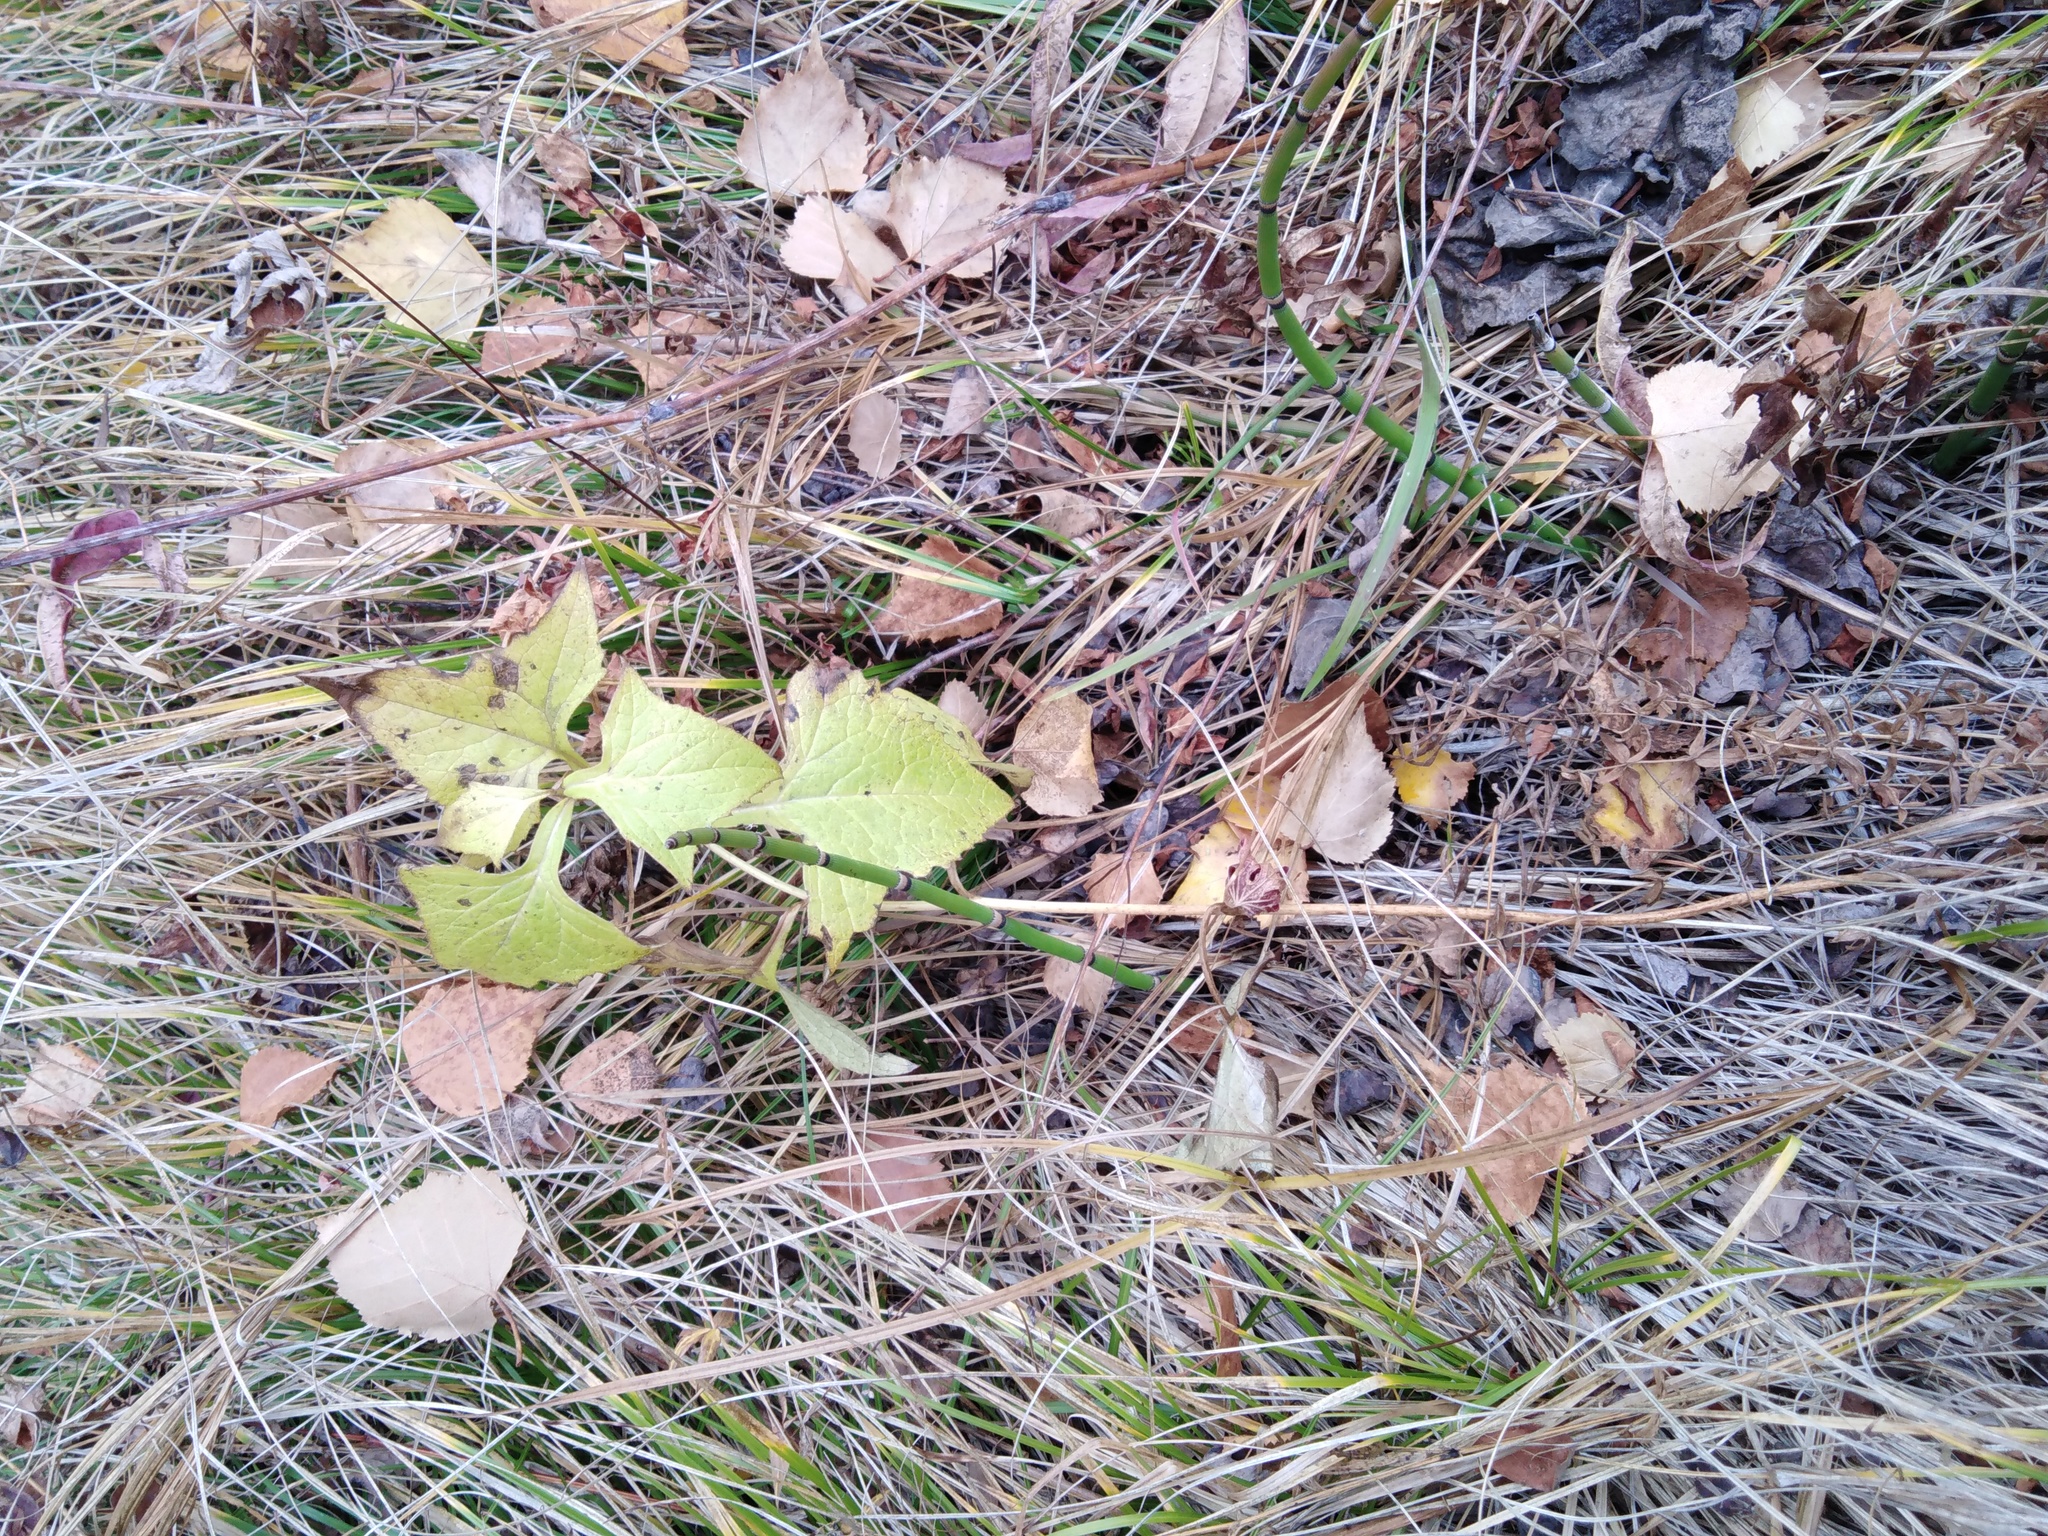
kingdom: Plantae
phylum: Tracheophyta
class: Magnoliopsida
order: Asterales
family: Asteraceae
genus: Parasenecio
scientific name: Parasenecio hastatus
